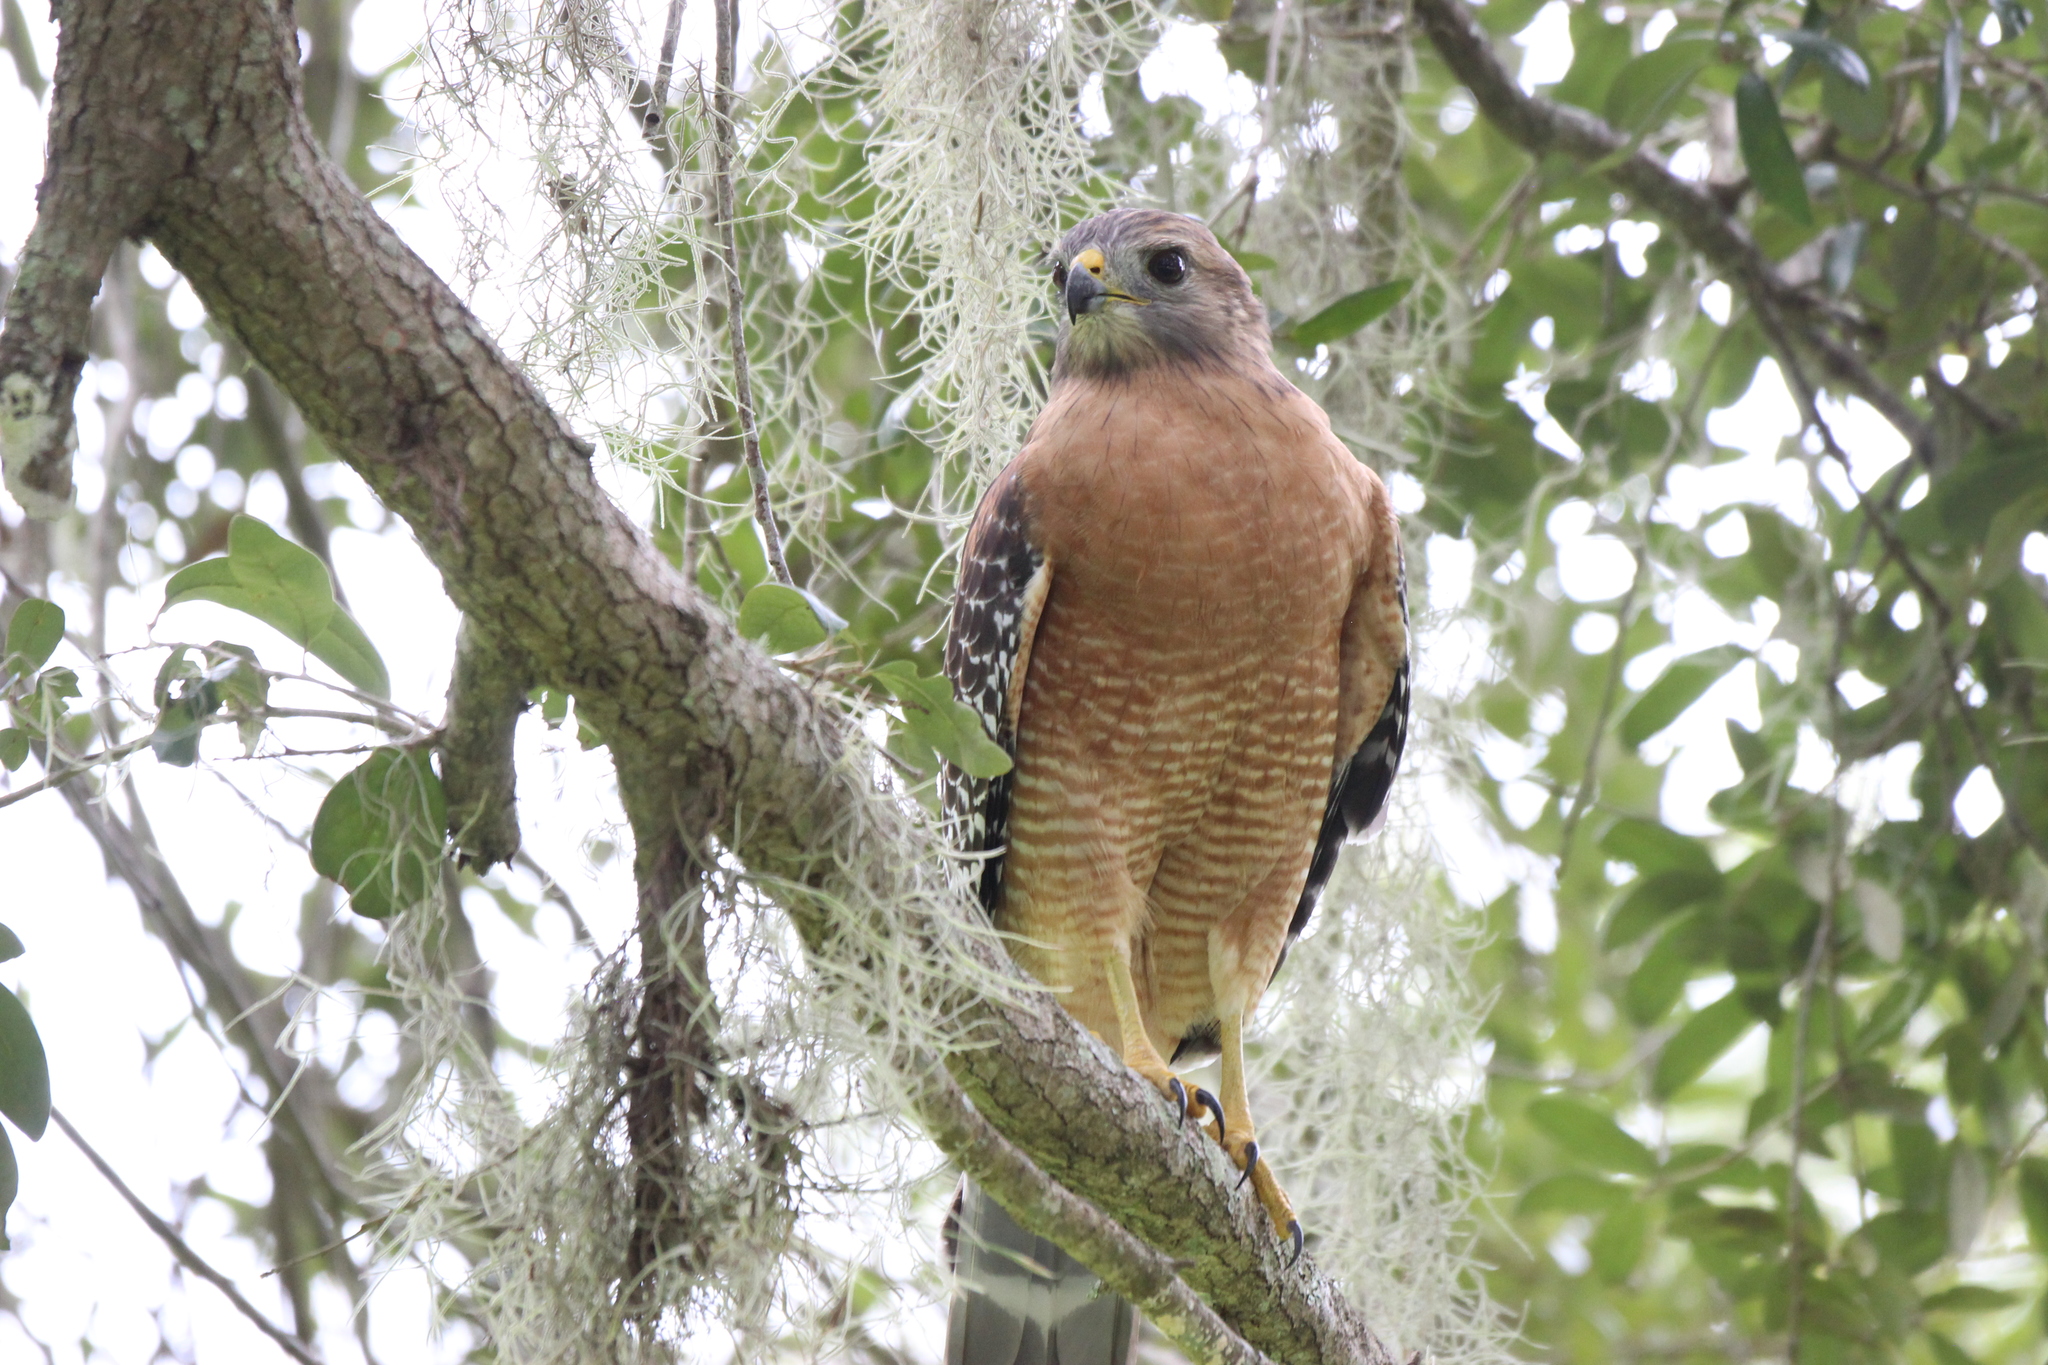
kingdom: Animalia
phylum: Chordata
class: Aves
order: Accipitriformes
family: Accipitridae
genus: Buteo
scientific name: Buteo lineatus
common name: Red-shouldered hawk
